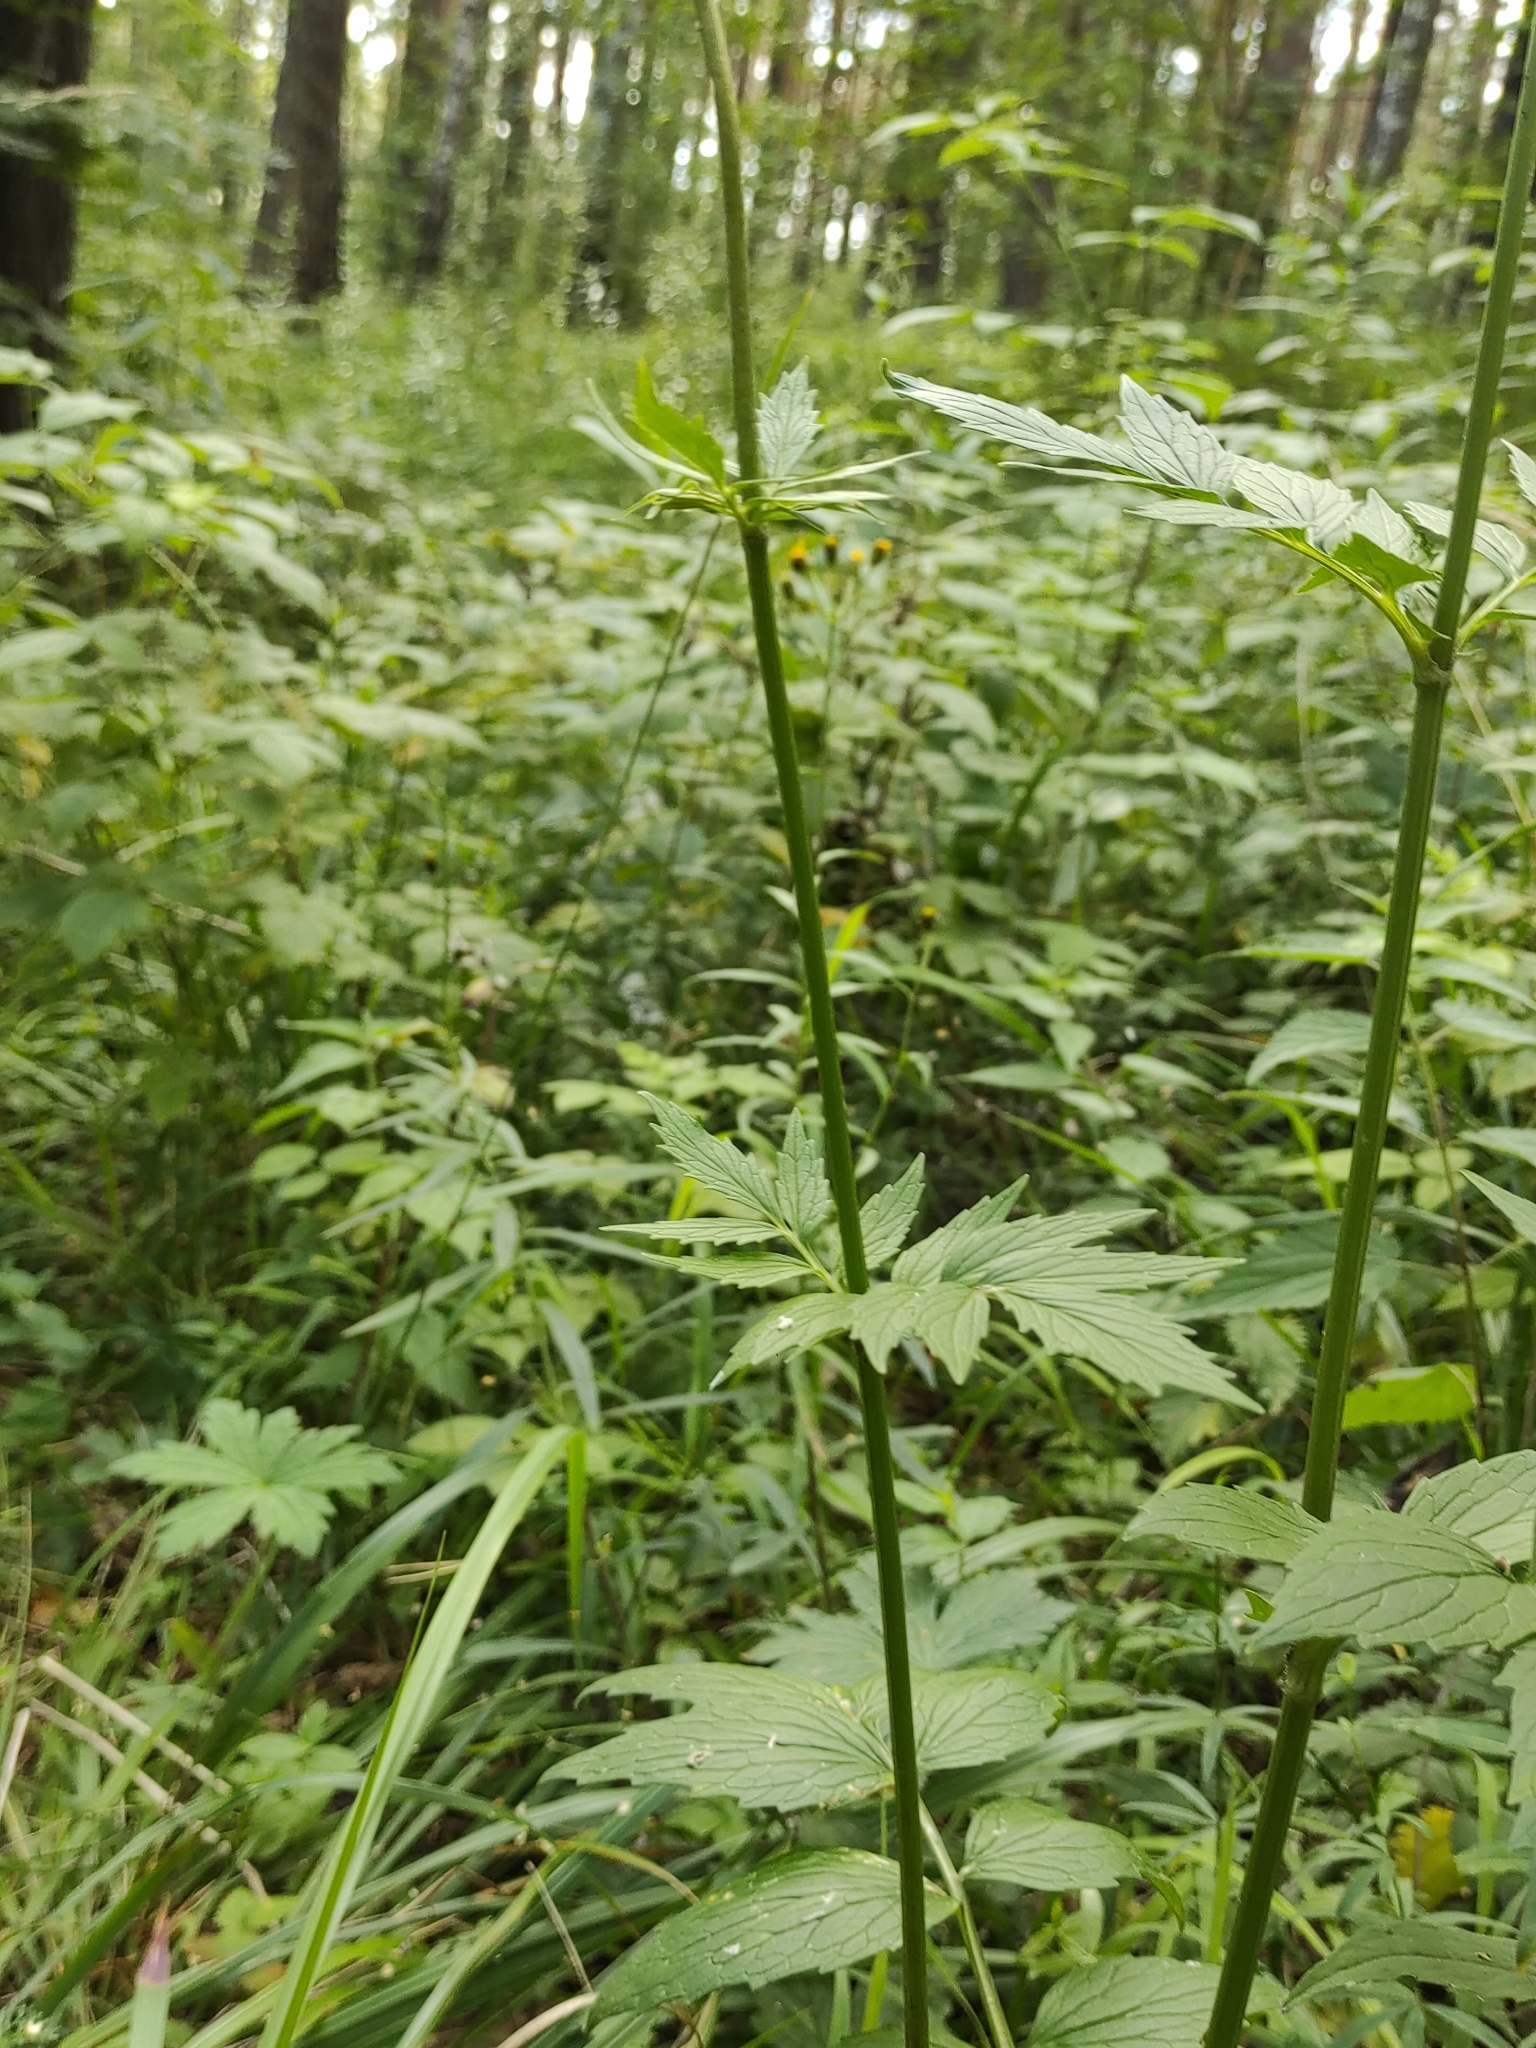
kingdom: Plantae
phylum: Tracheophyta
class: Magnoliopsida
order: Dipsacales
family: Caprifoliaceae
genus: Valeriana
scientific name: Valeriana wolgensis
